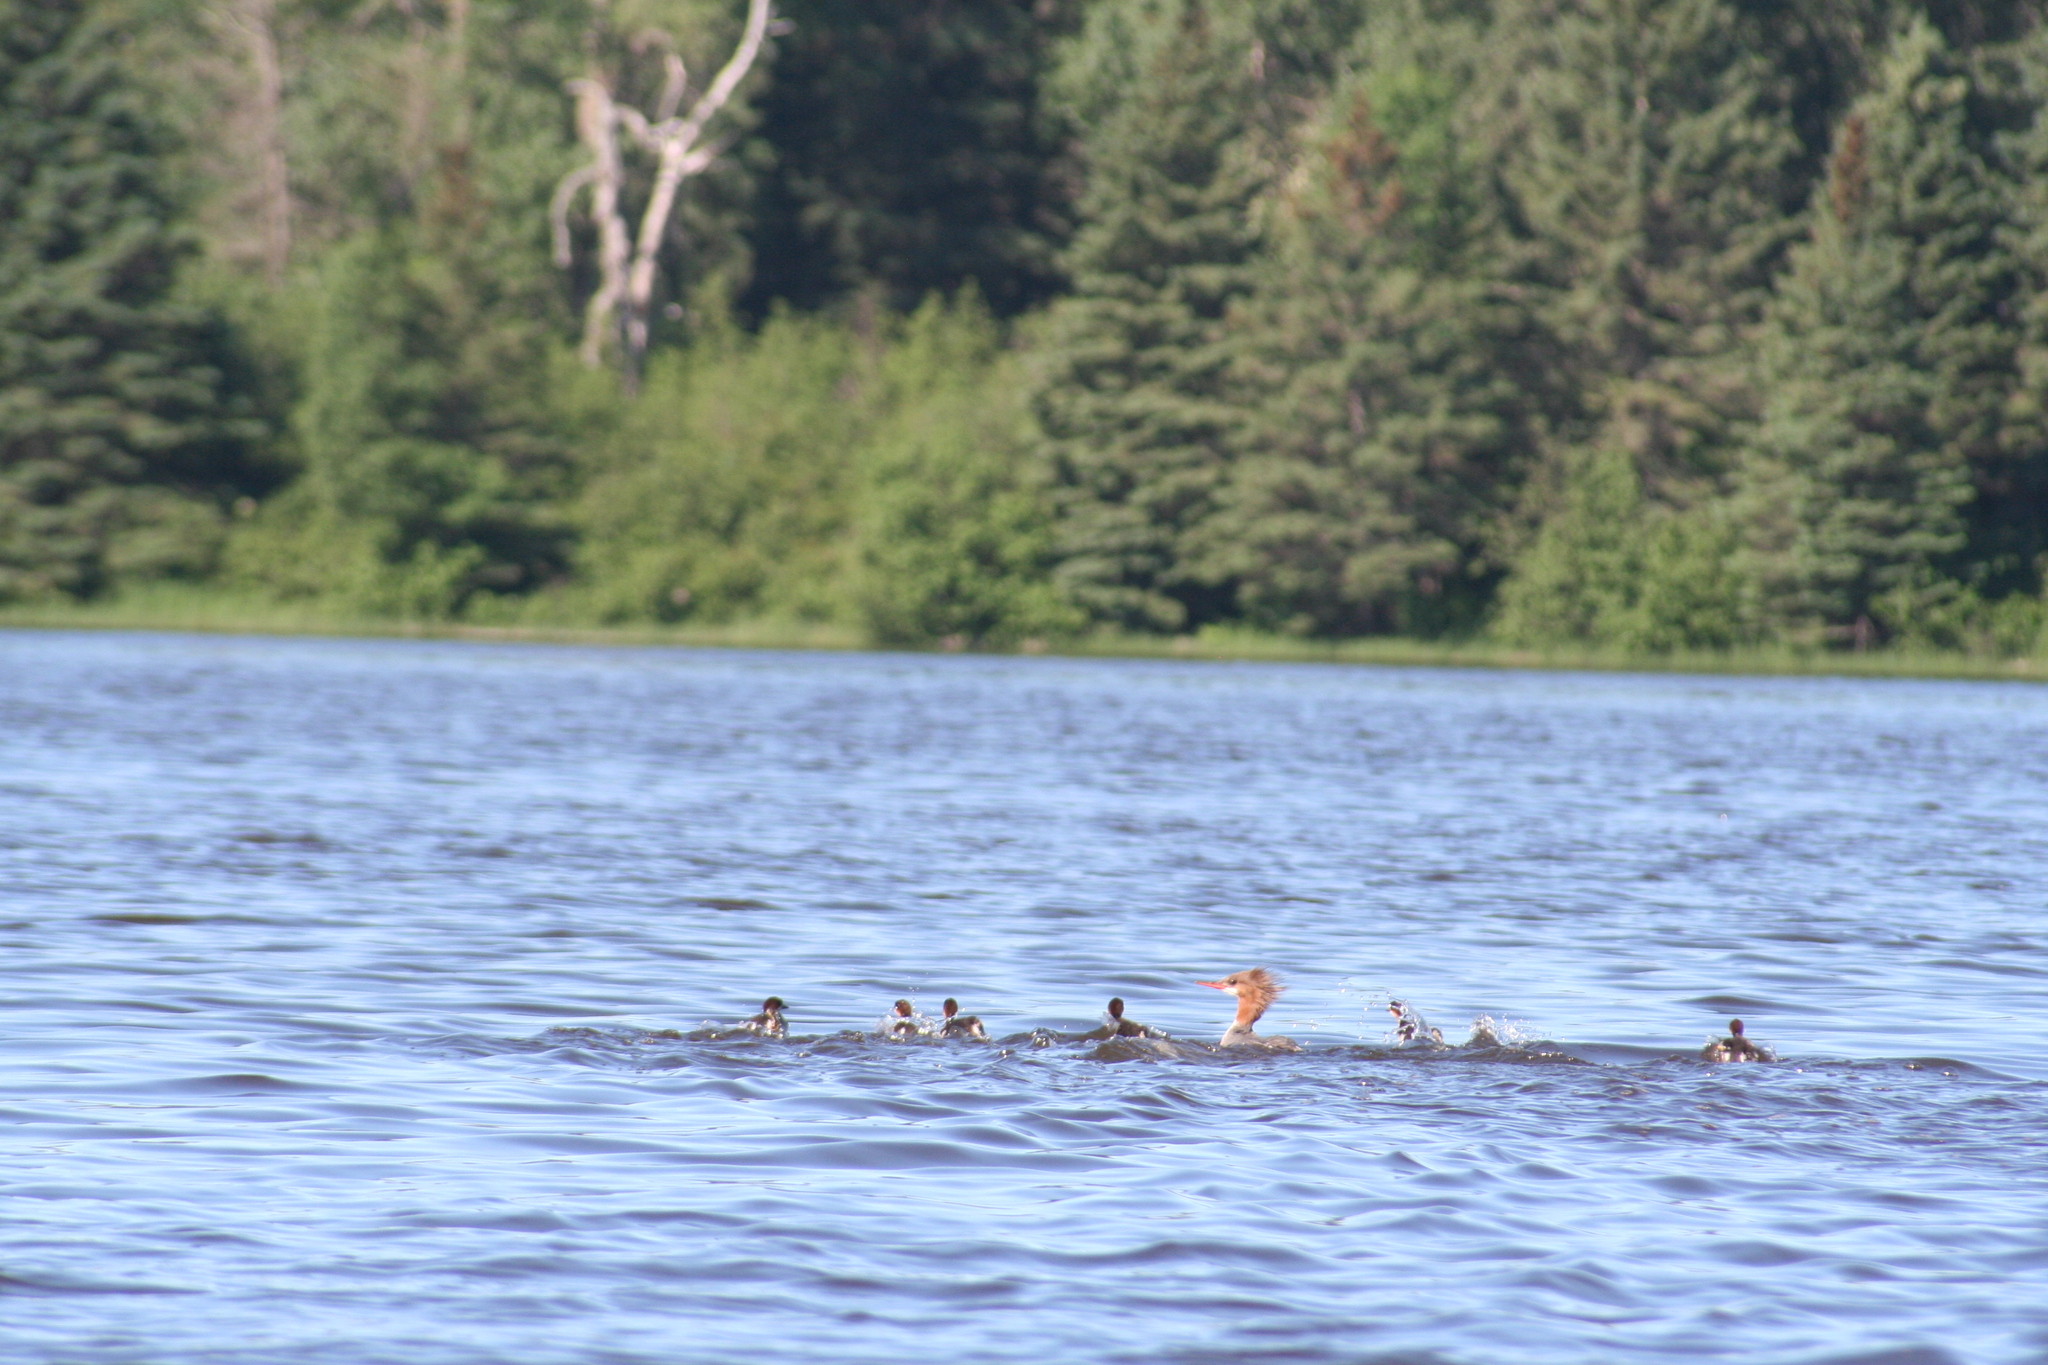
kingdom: Animalia
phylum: Chordata
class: Aves
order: Anseriformes
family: Anatidae
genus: Mergus
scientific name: Mergus merganser
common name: Common merganser
